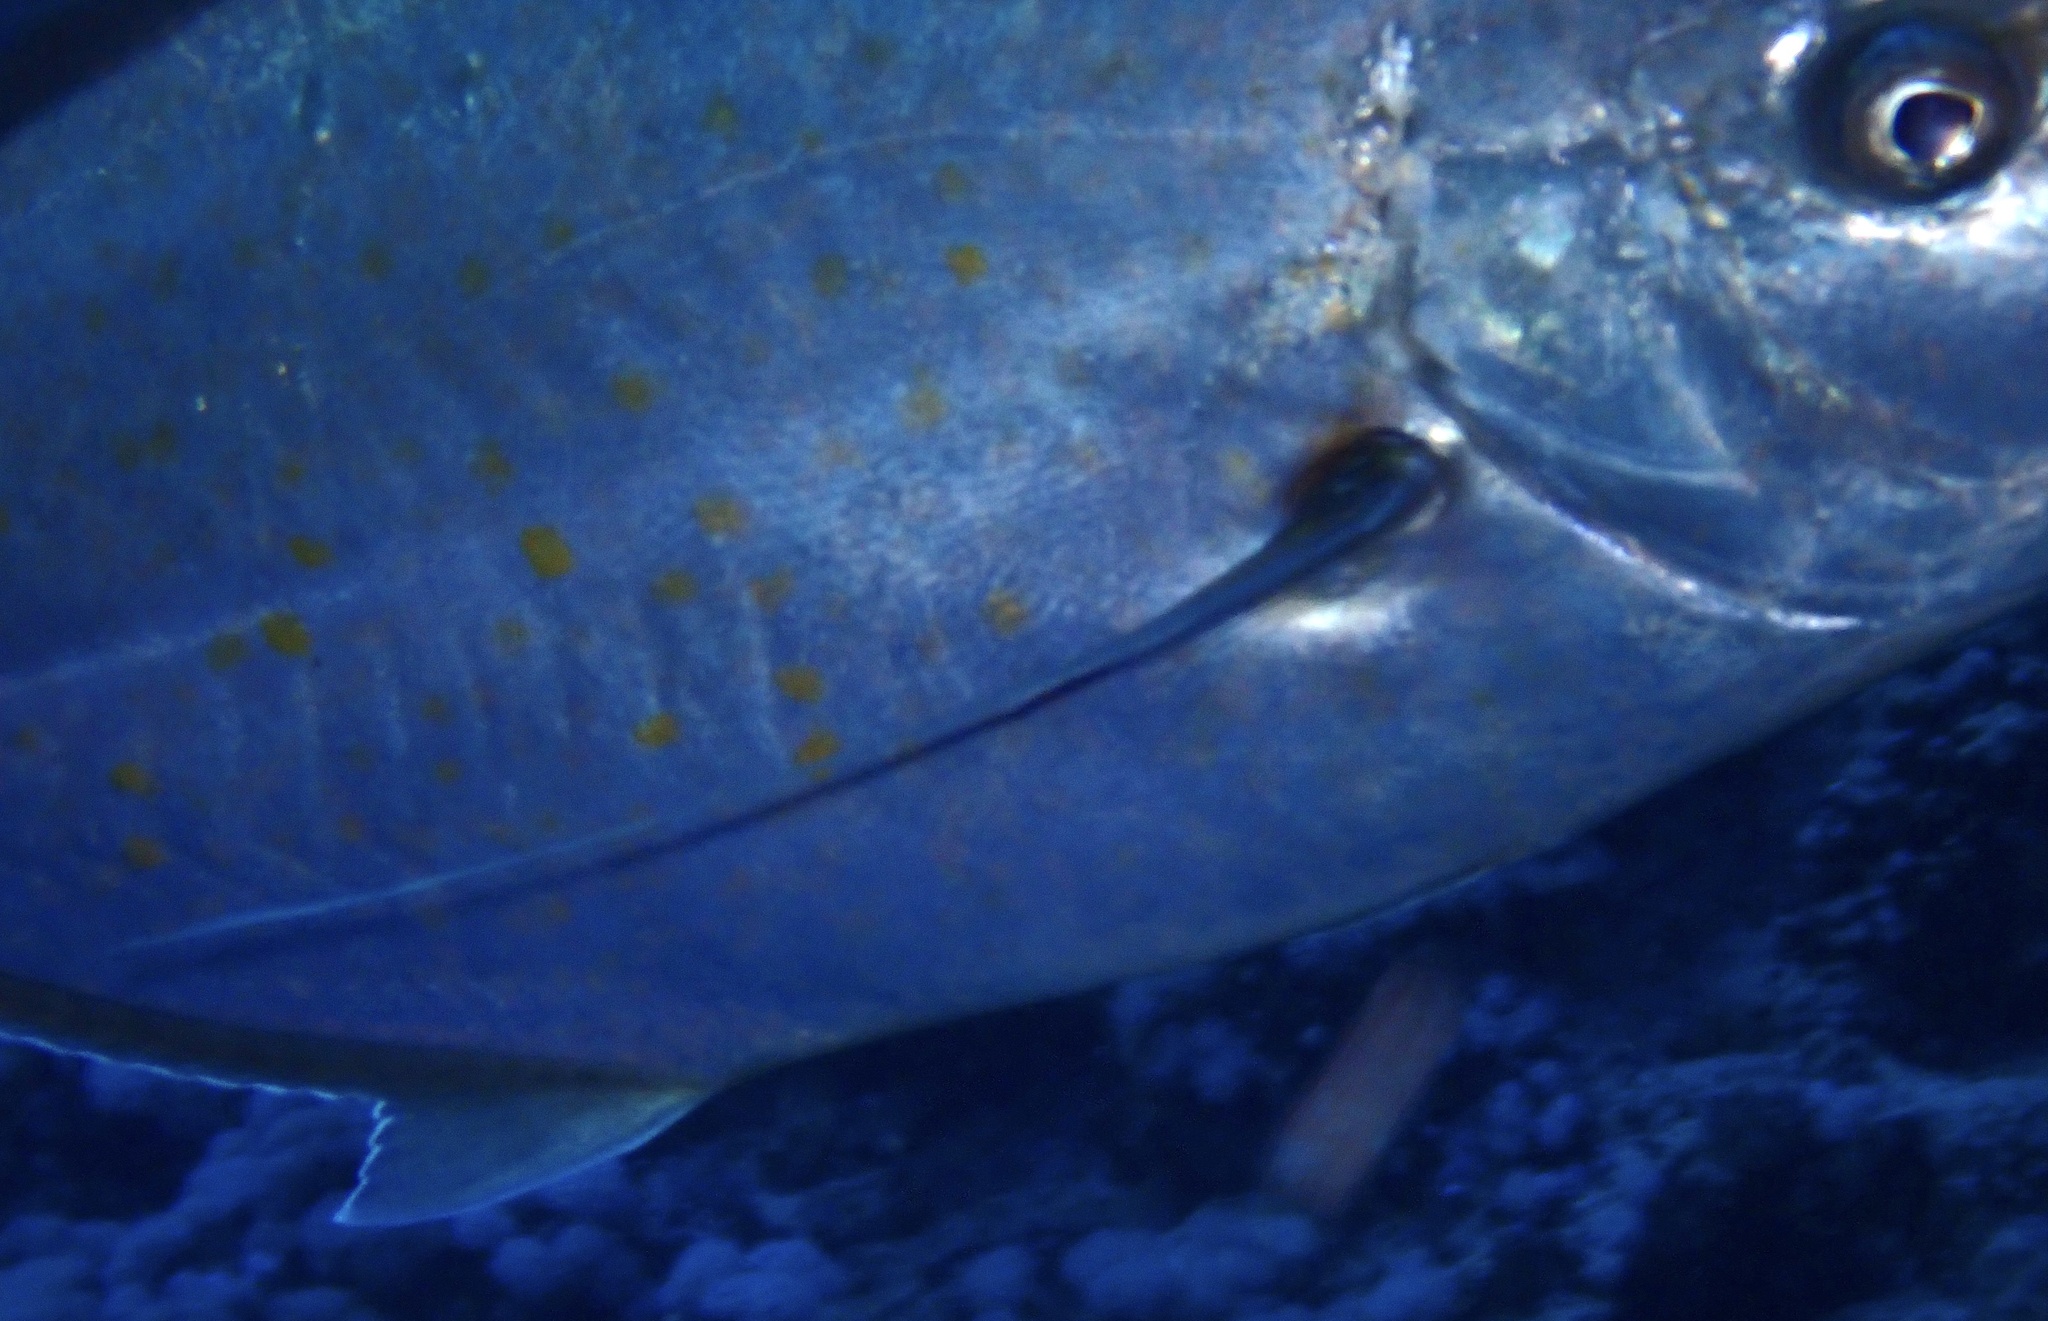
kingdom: Animalia
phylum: Chordata
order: Perciformes
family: Carangidae
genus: Flavocaranx
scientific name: Flavocaranx bajad
